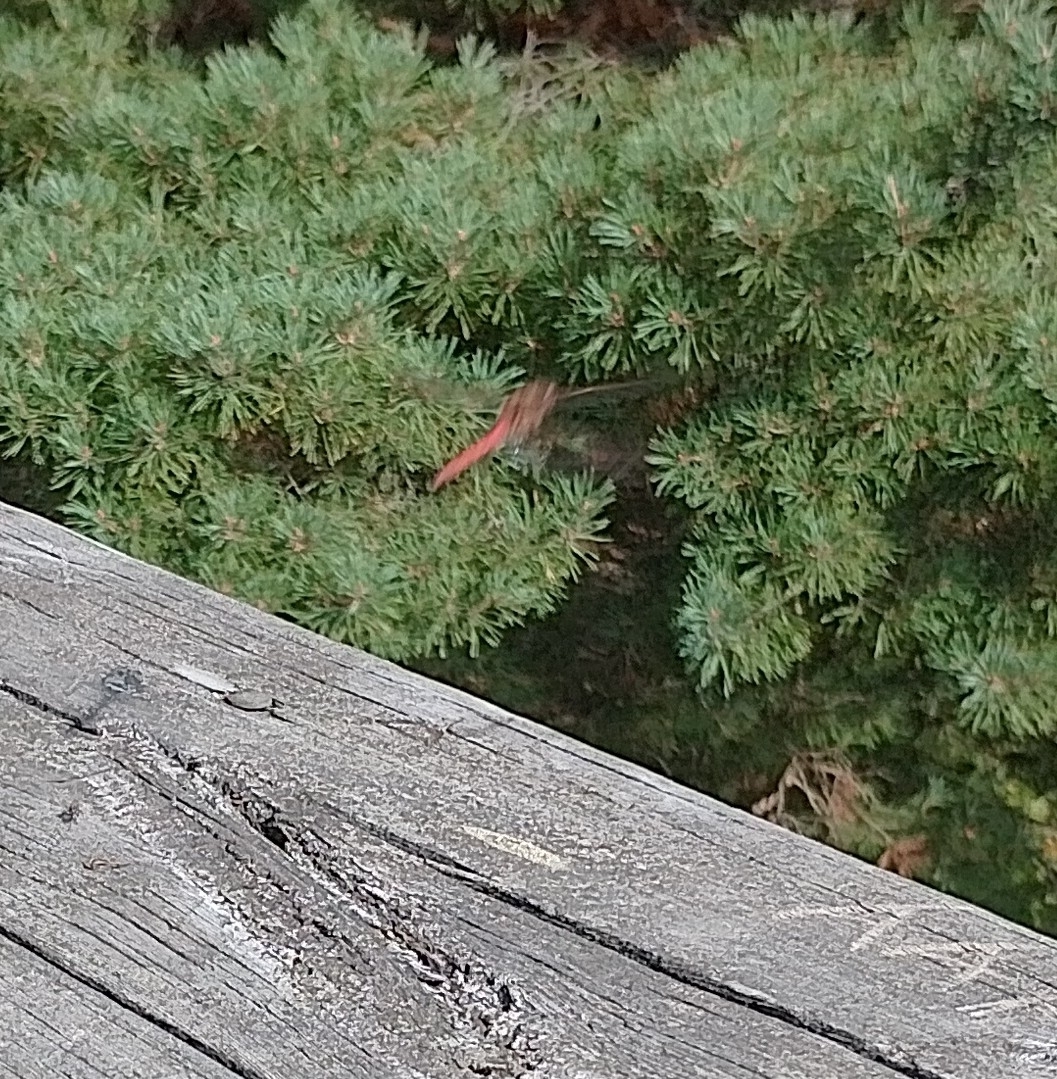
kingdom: Animalia
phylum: Arthropoda
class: Insecta
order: Odonata
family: Libellulidae
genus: Sympetrum
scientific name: Sympetrum vulgatum
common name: Vagrant darter
